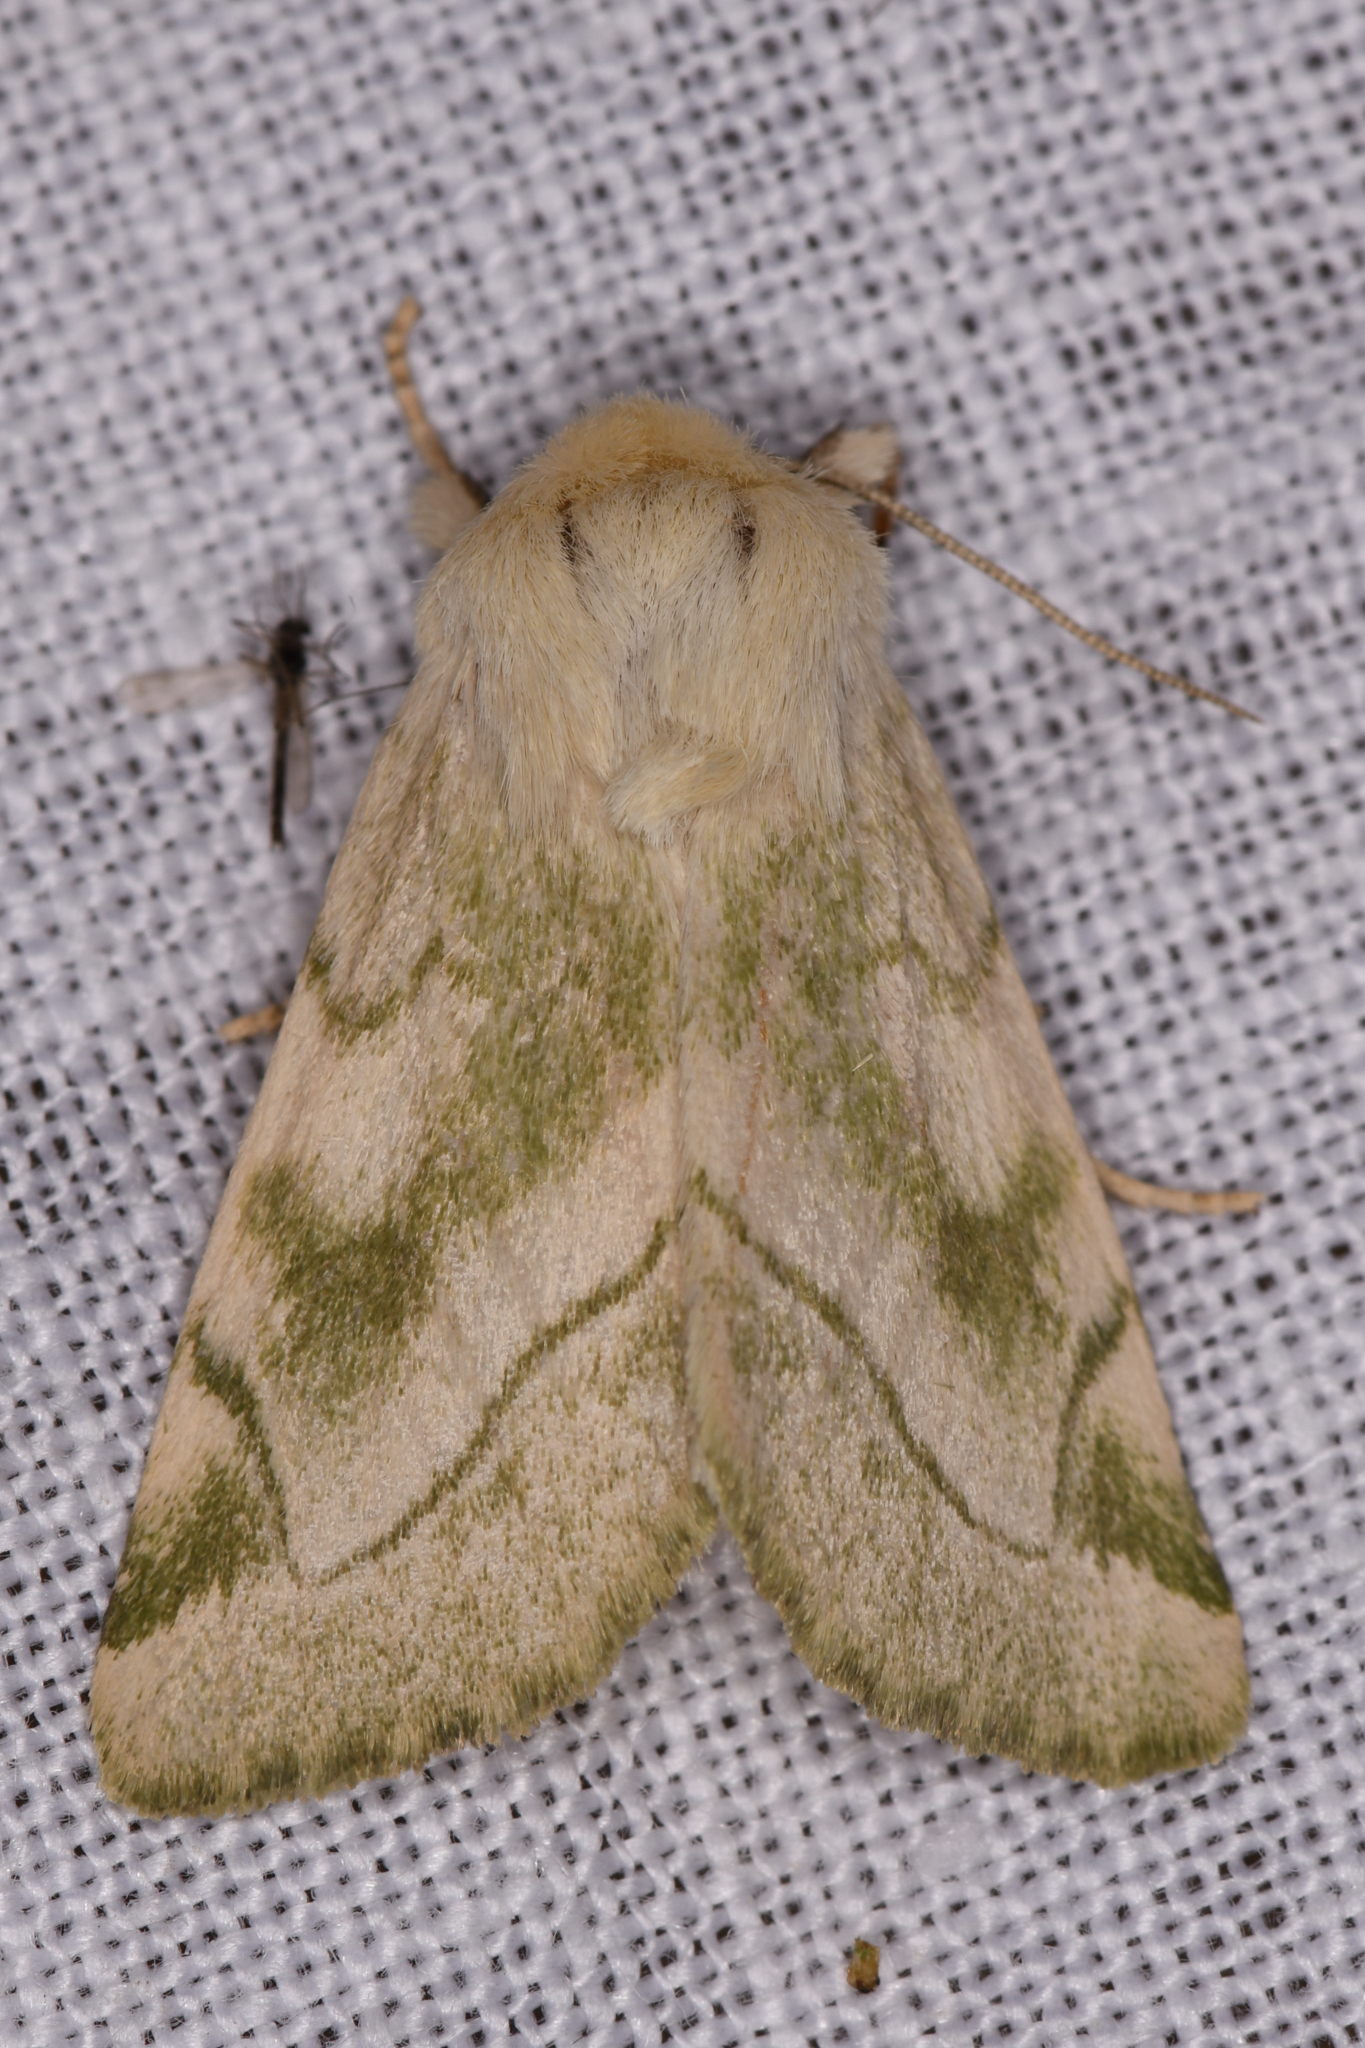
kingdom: Animalia
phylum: Arthropoda
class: Insecta
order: Lepidoptera
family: Noctuidae
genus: Zotheca
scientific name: Zotheca tranquilla
